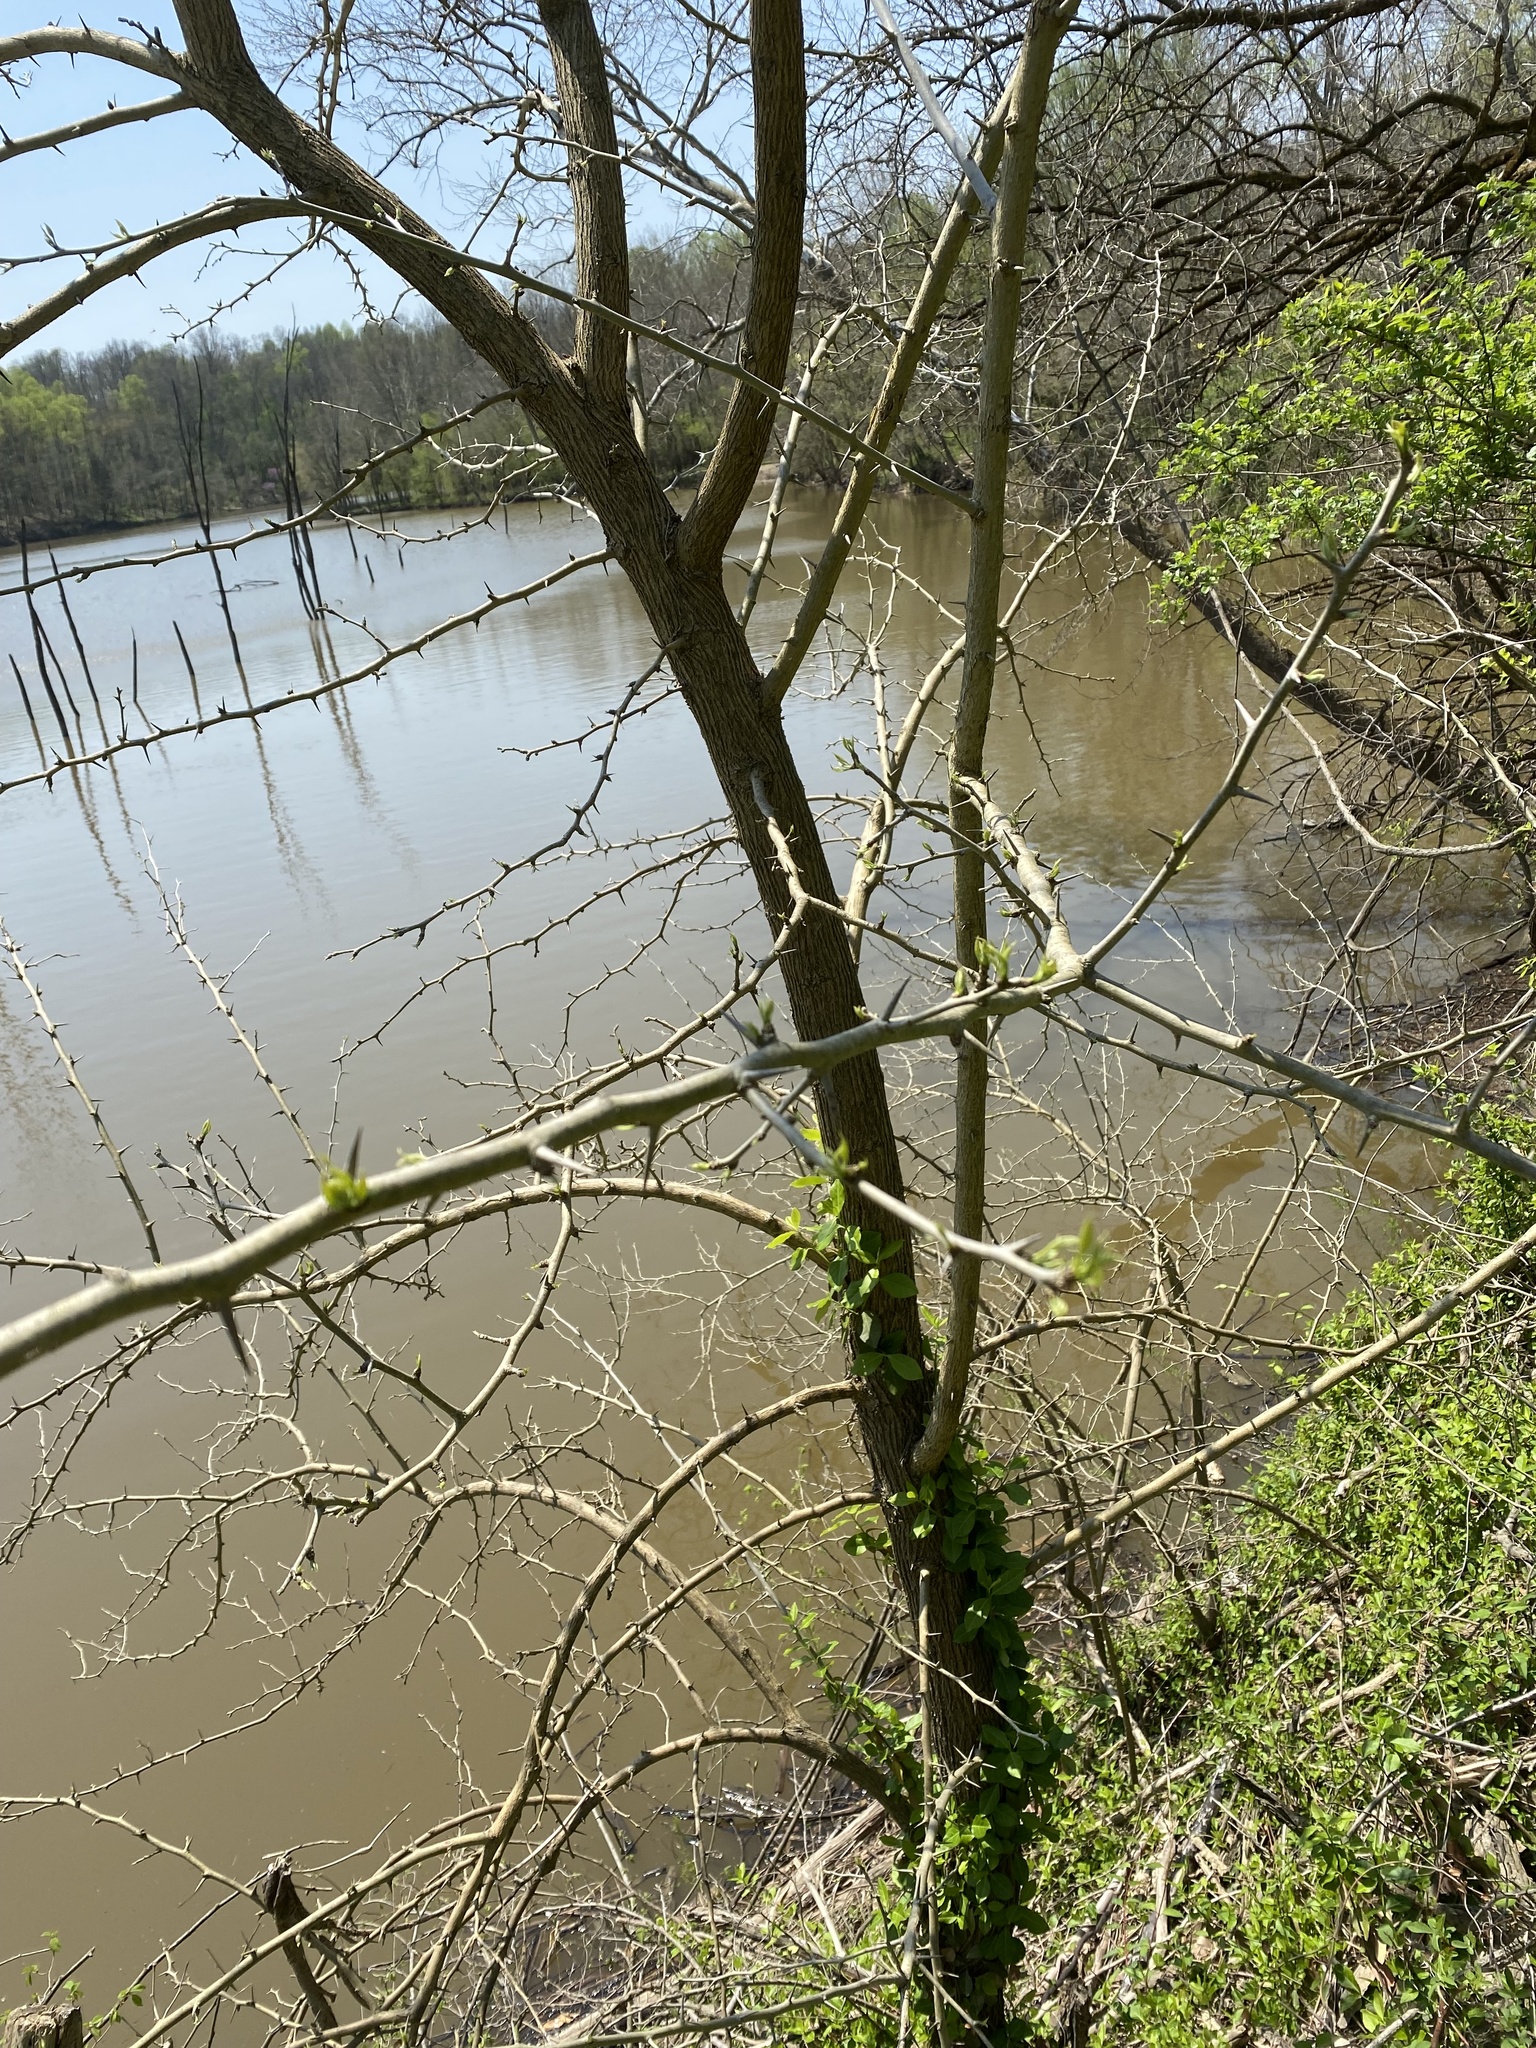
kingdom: Plantae
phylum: Tracheophyta
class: Magnoliopsida
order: Rosales
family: Moraceae
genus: Maclura
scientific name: Maclura pomifera
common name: Osage-orange
